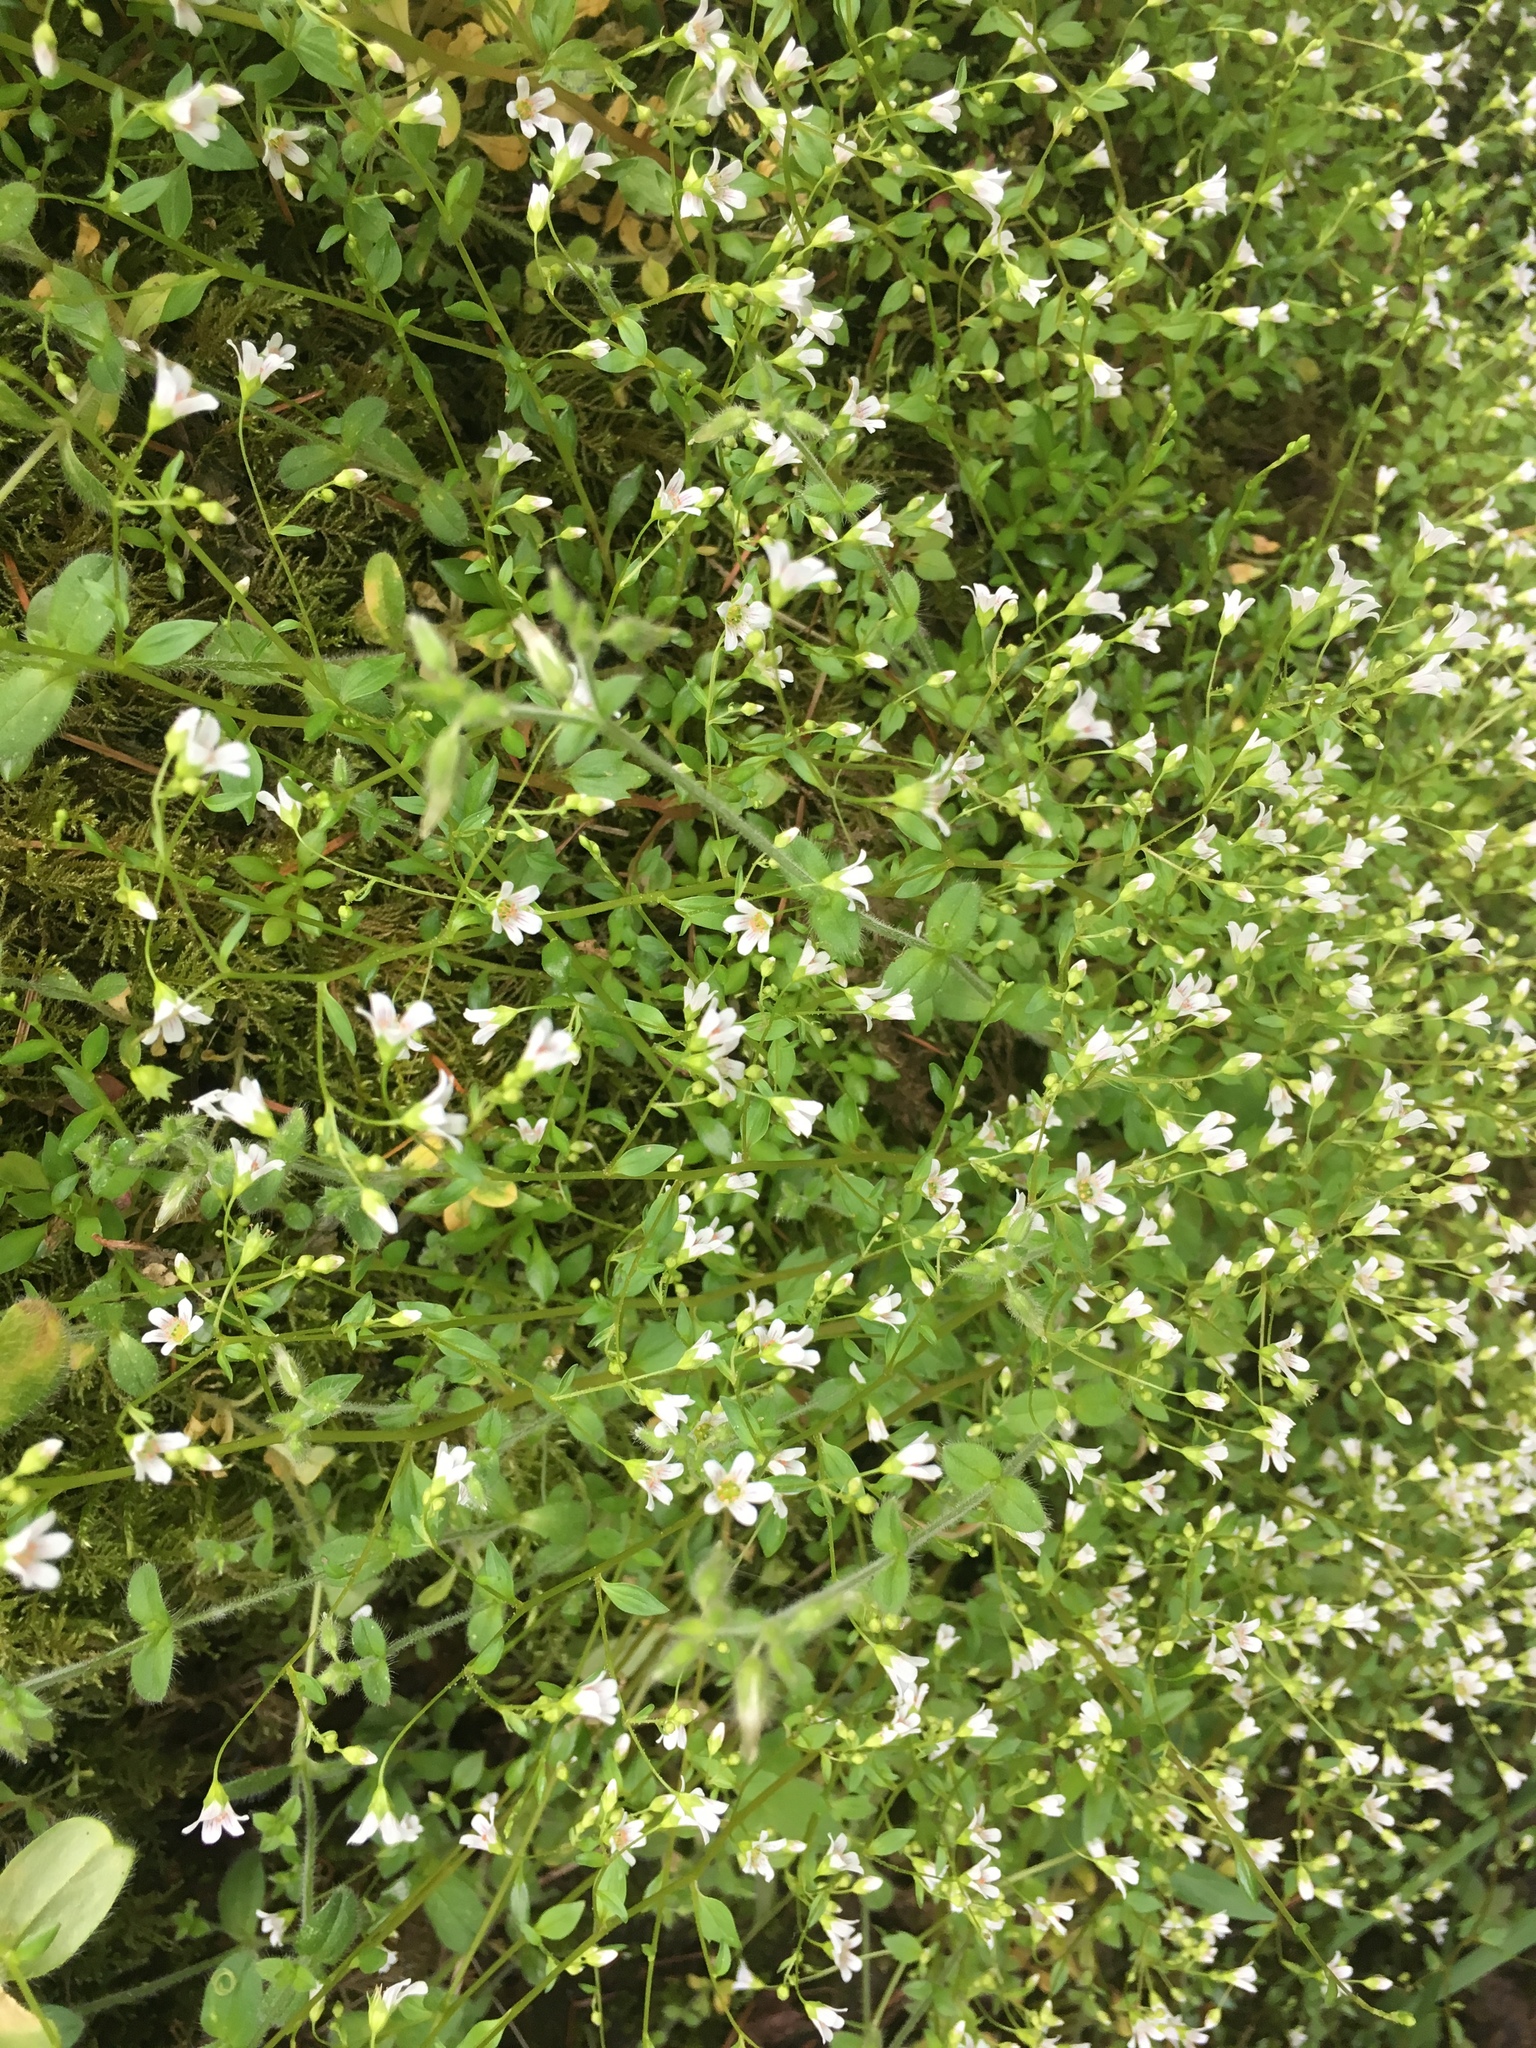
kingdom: Plantae
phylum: Tracheophyta
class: Magnoliopsida
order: Boraginales
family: Hydrophyllaceae
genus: Romanzoffia
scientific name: Romanzoffia sitchensis
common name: Sitka mistmaid
